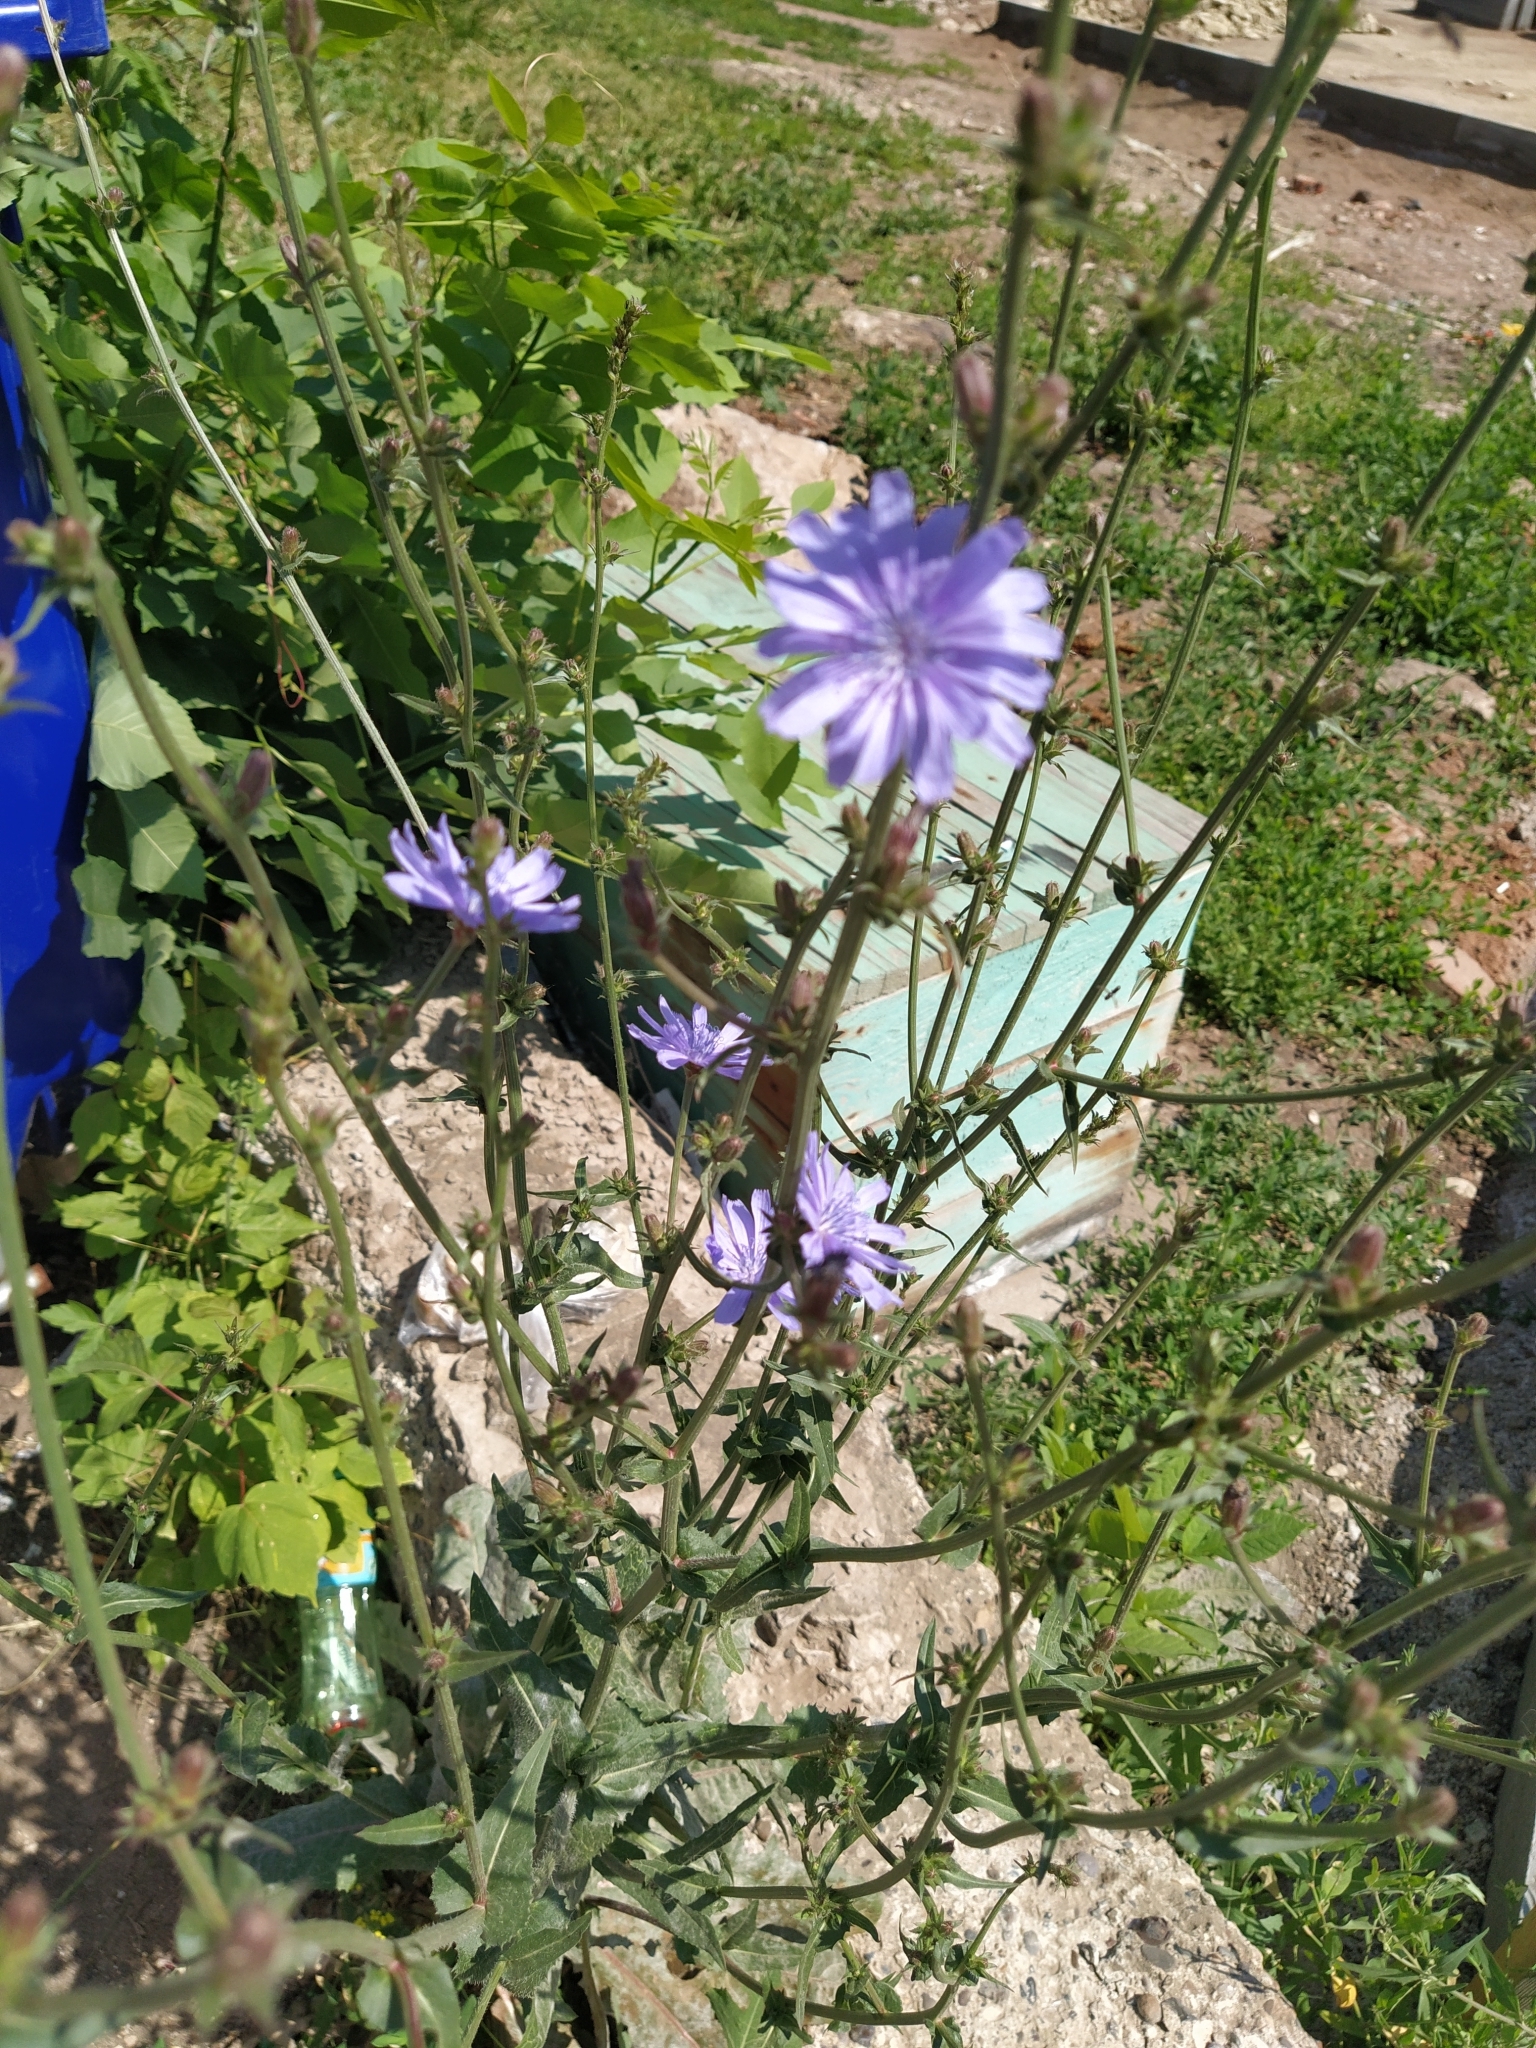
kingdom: Plantae
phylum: Tracheophyta
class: Magnoliopsida
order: Asterales
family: Asteraceae
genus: Cichorium
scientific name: Cichorium intybus
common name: Chicory
